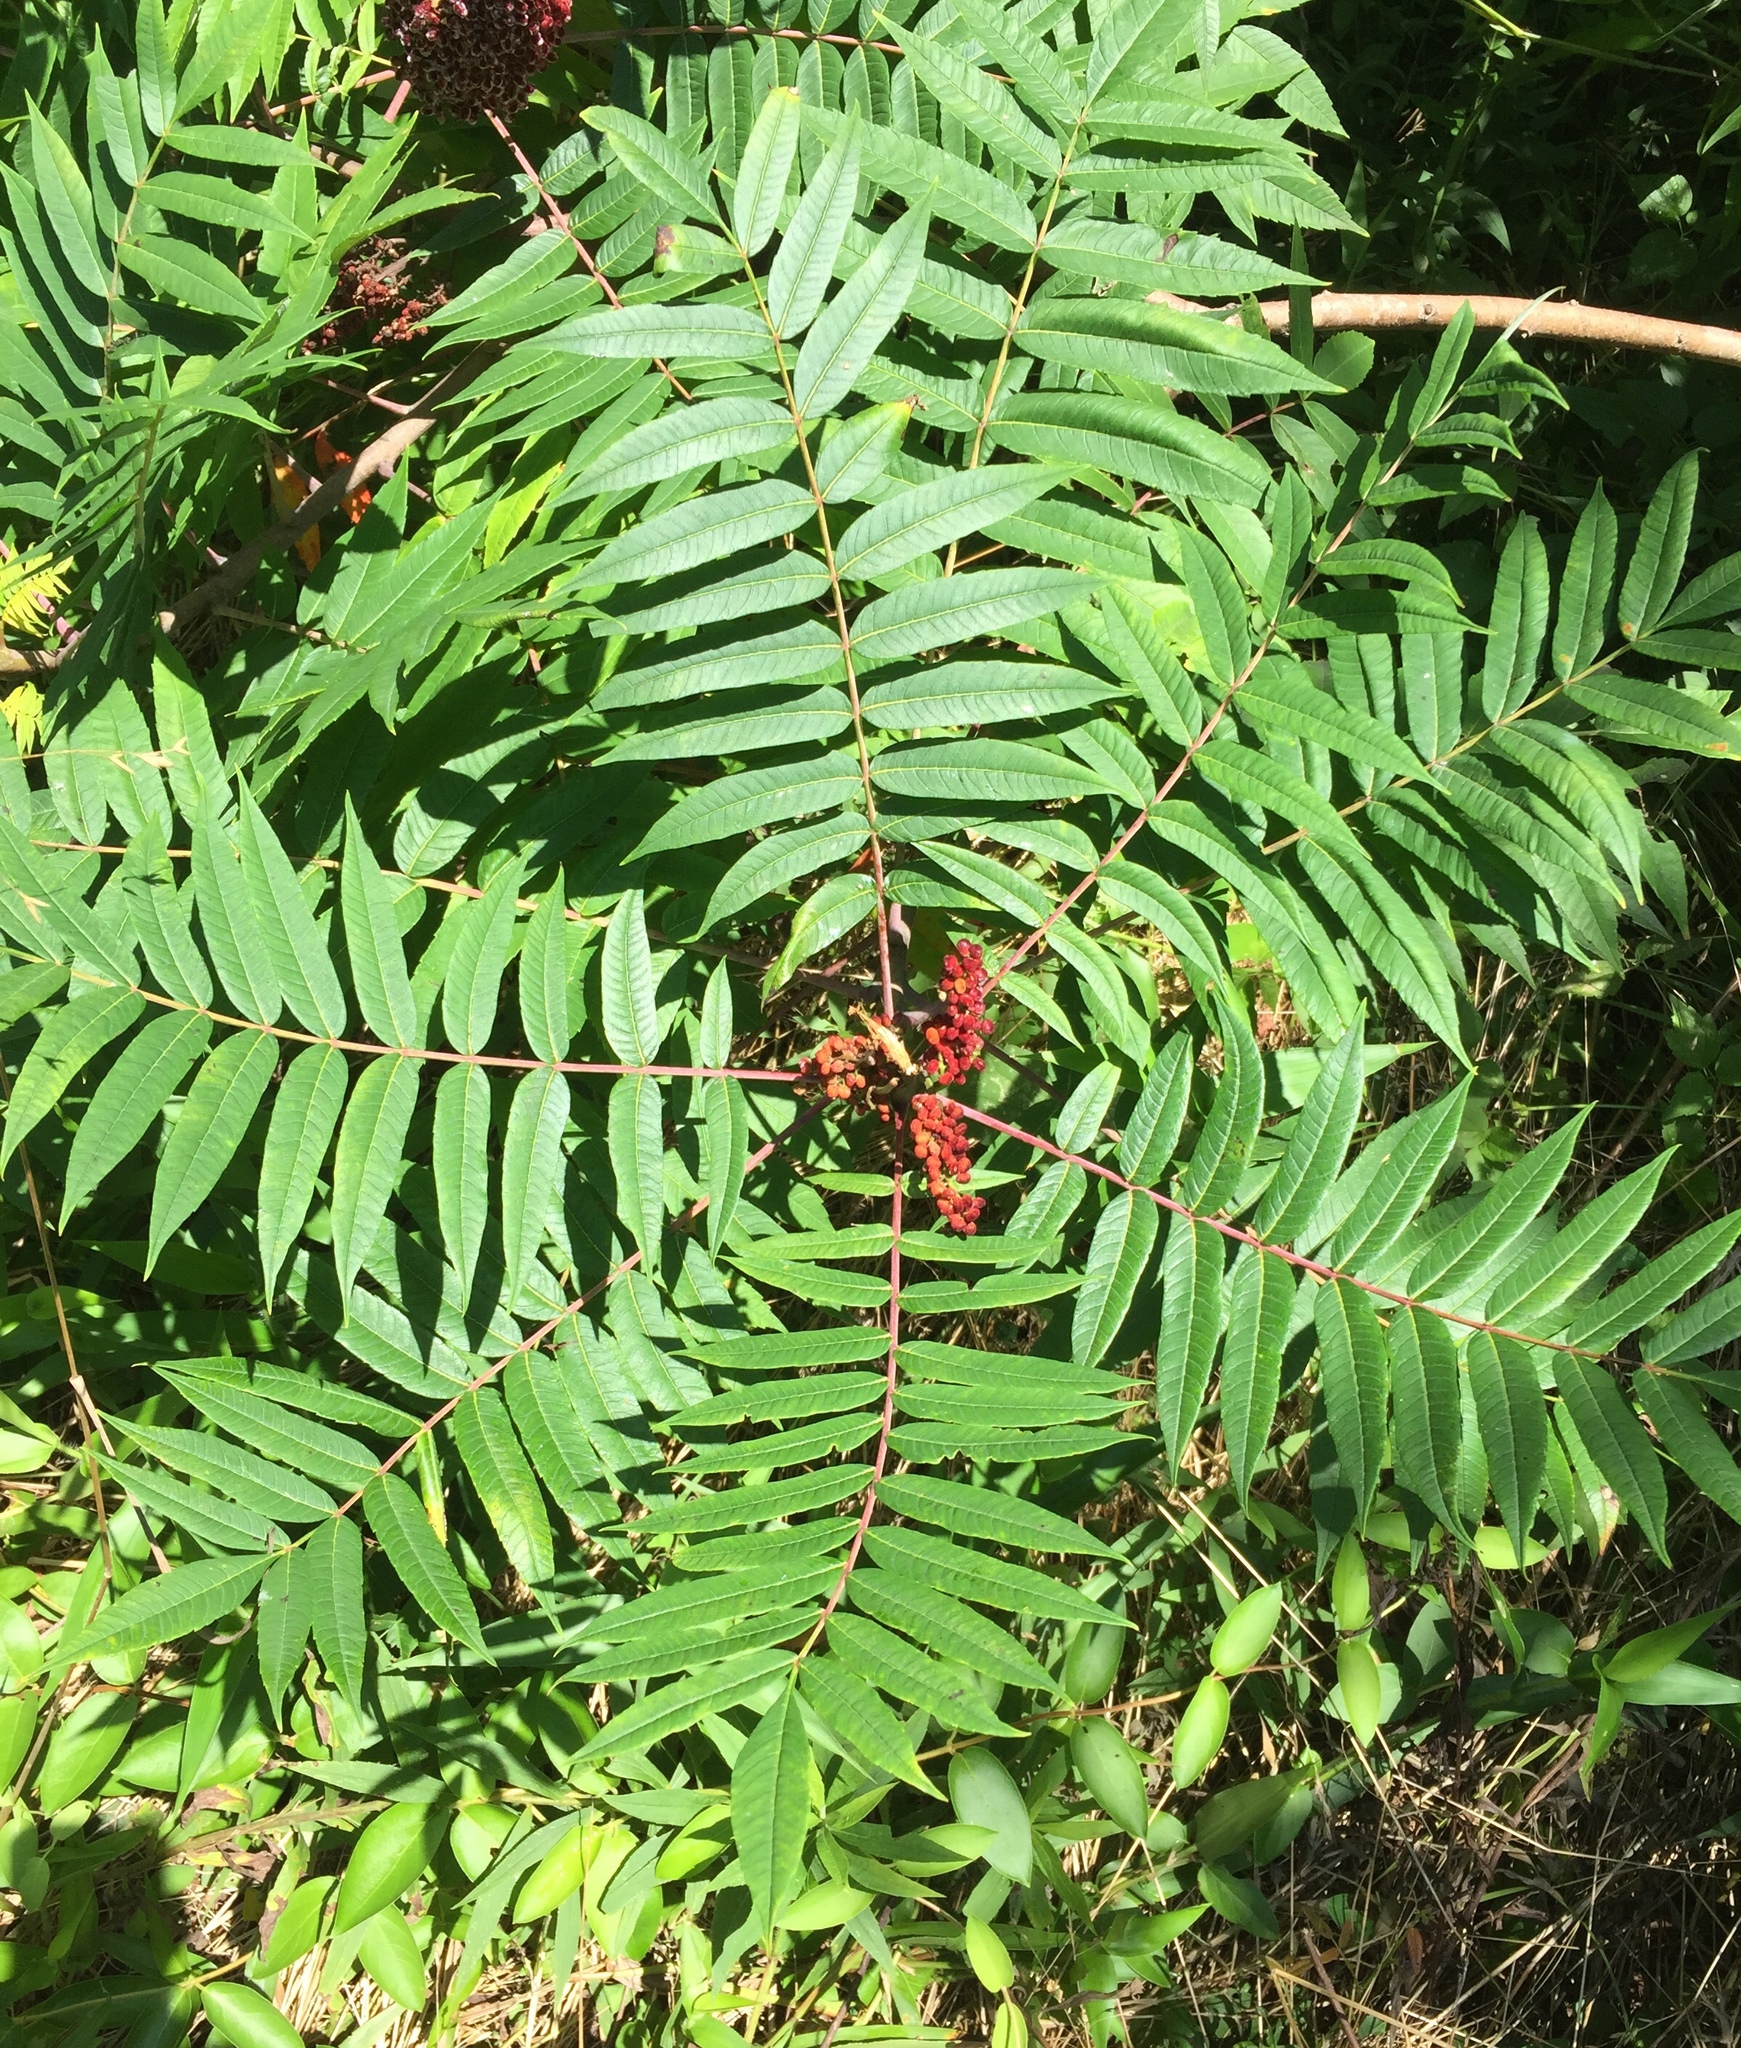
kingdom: Plantae
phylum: Tracheophyta
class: Magnoliopsida
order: Sapindales
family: Anacardiaceae
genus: Rhus
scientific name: Rhus glabra
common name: Scarlet sumac
